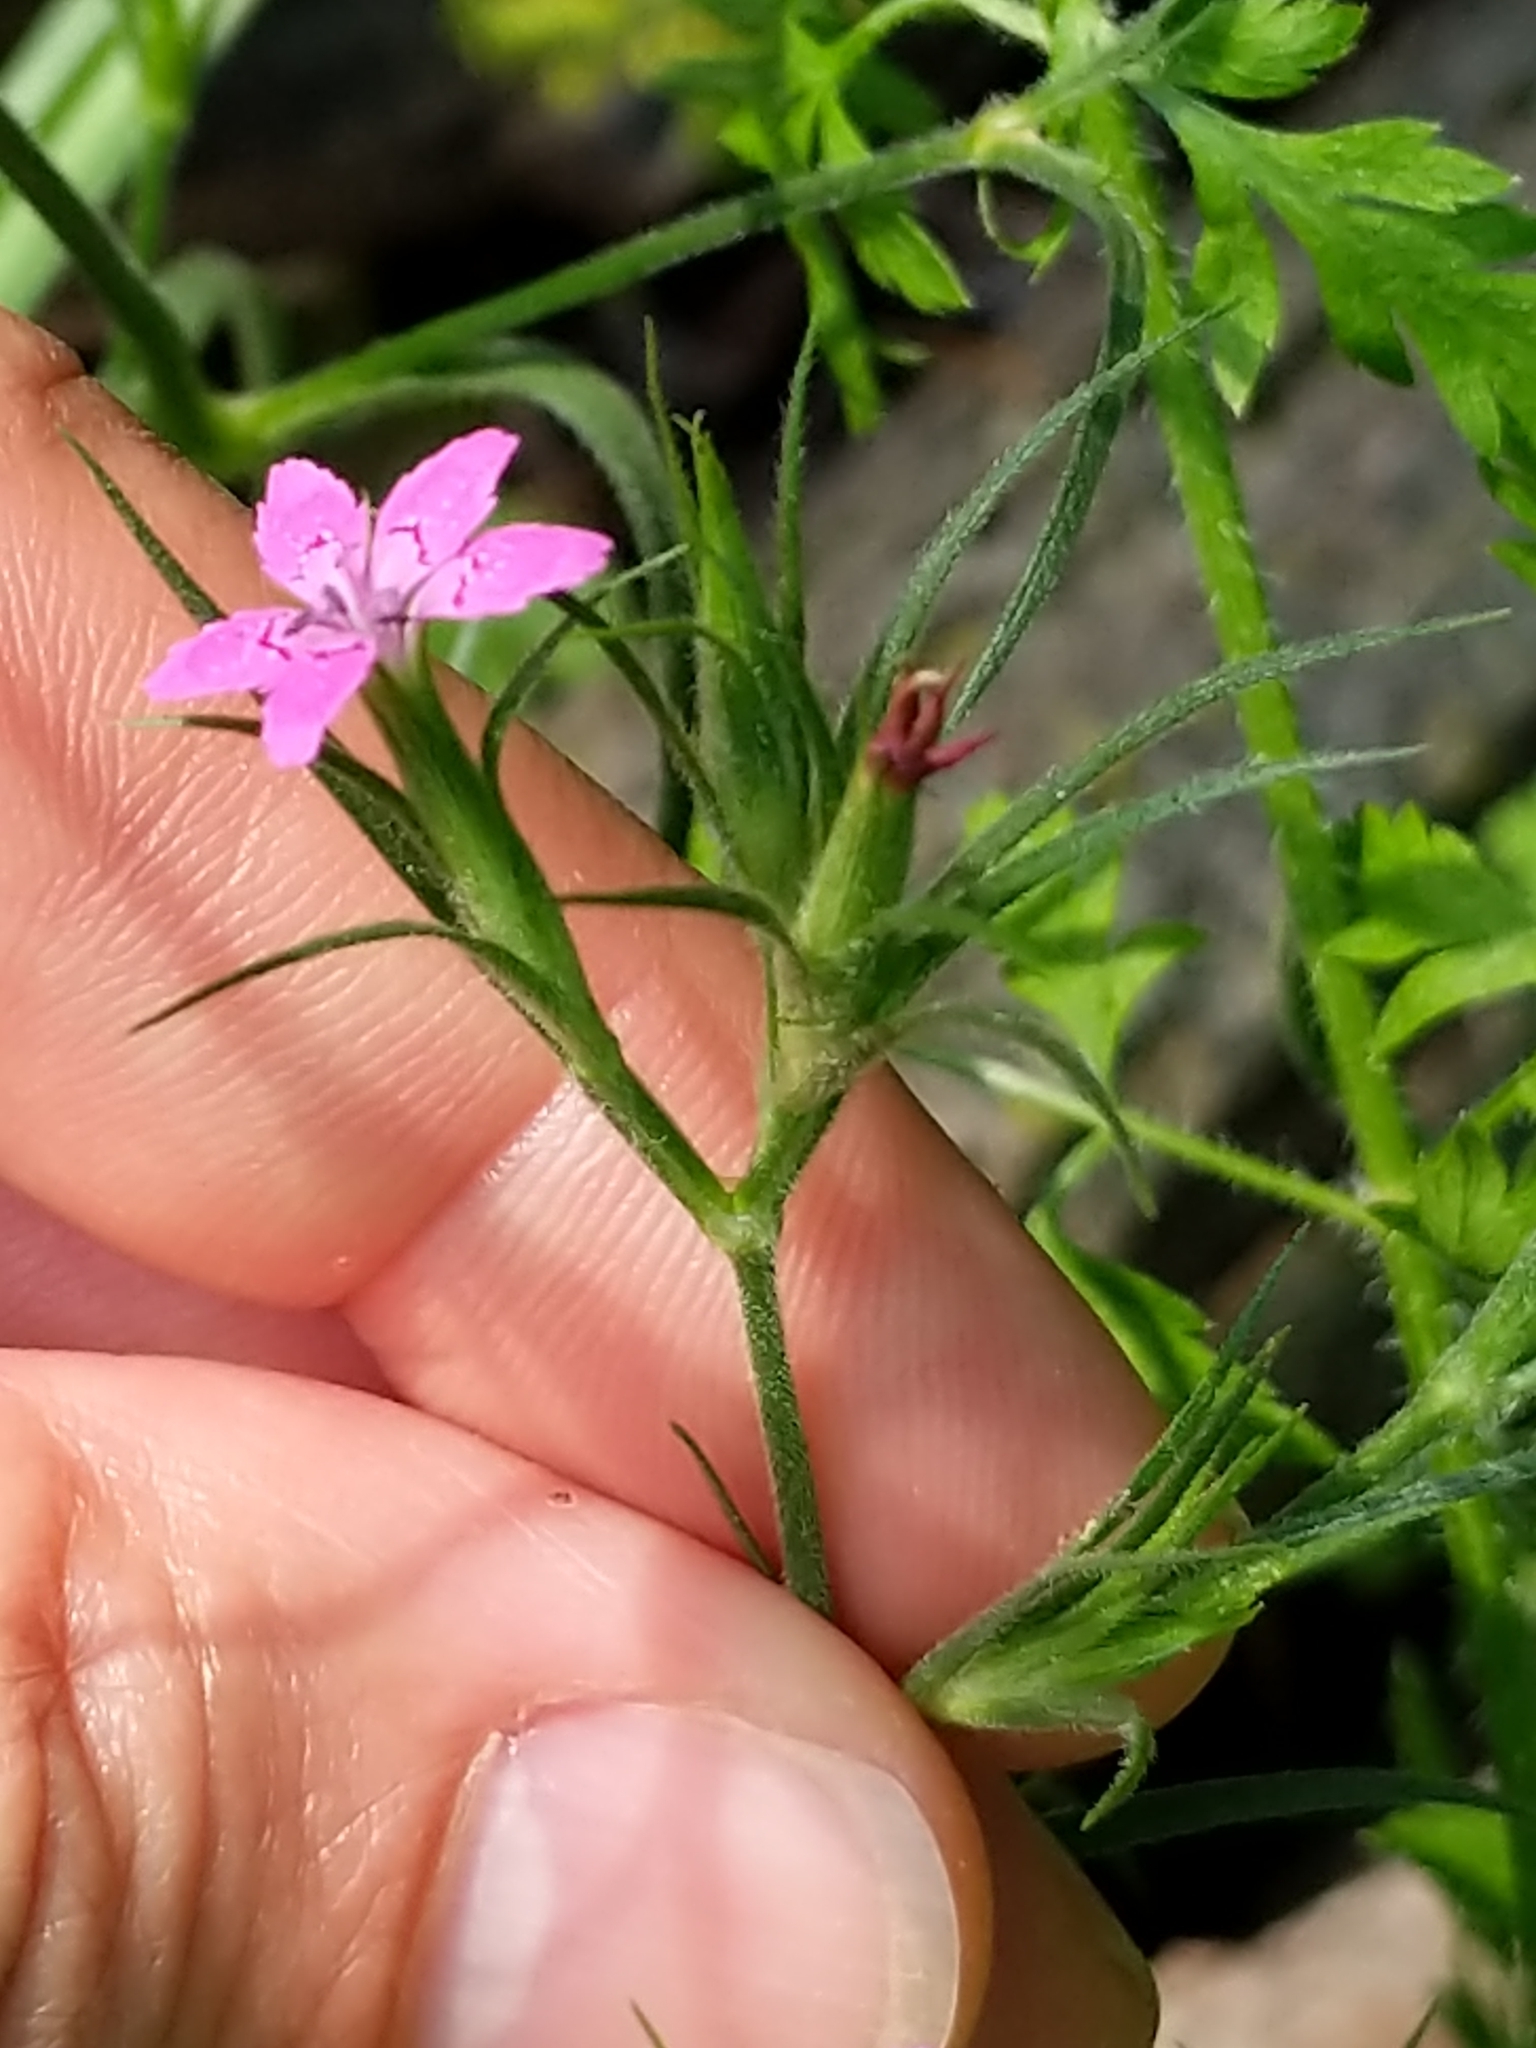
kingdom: Plantae
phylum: Tracheophyta
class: Magnoliopsida
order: Caryophyllales
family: Caryophyllaceae
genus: Dianthus
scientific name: Dianthus armeria
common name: Deptford pink
